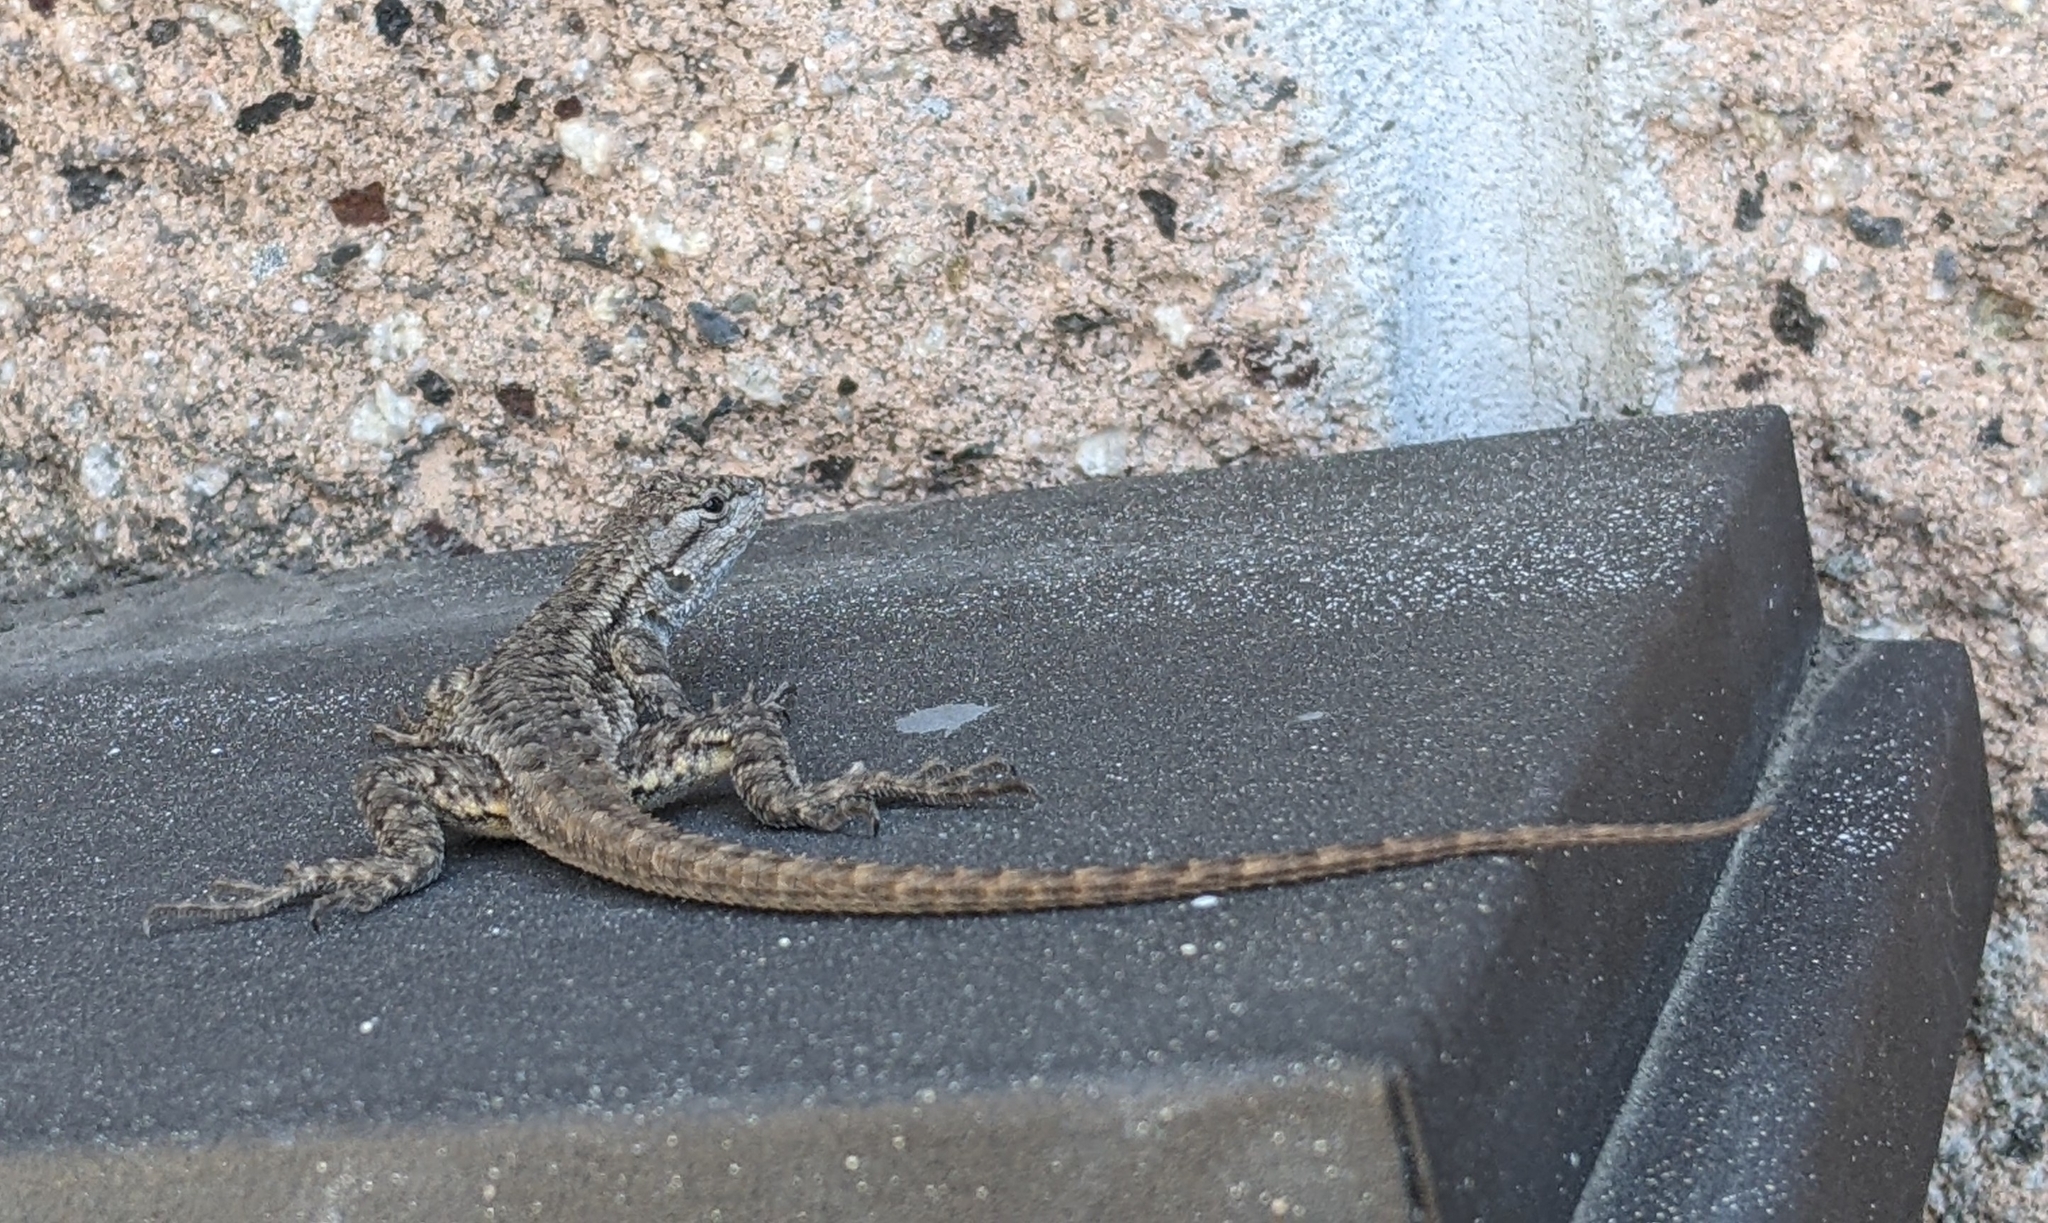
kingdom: Animalia
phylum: Chordata
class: Squamata
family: Phrynosomatidae
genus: Sceloporus
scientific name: Sceloporus occidentalis
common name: Western fence lizard
